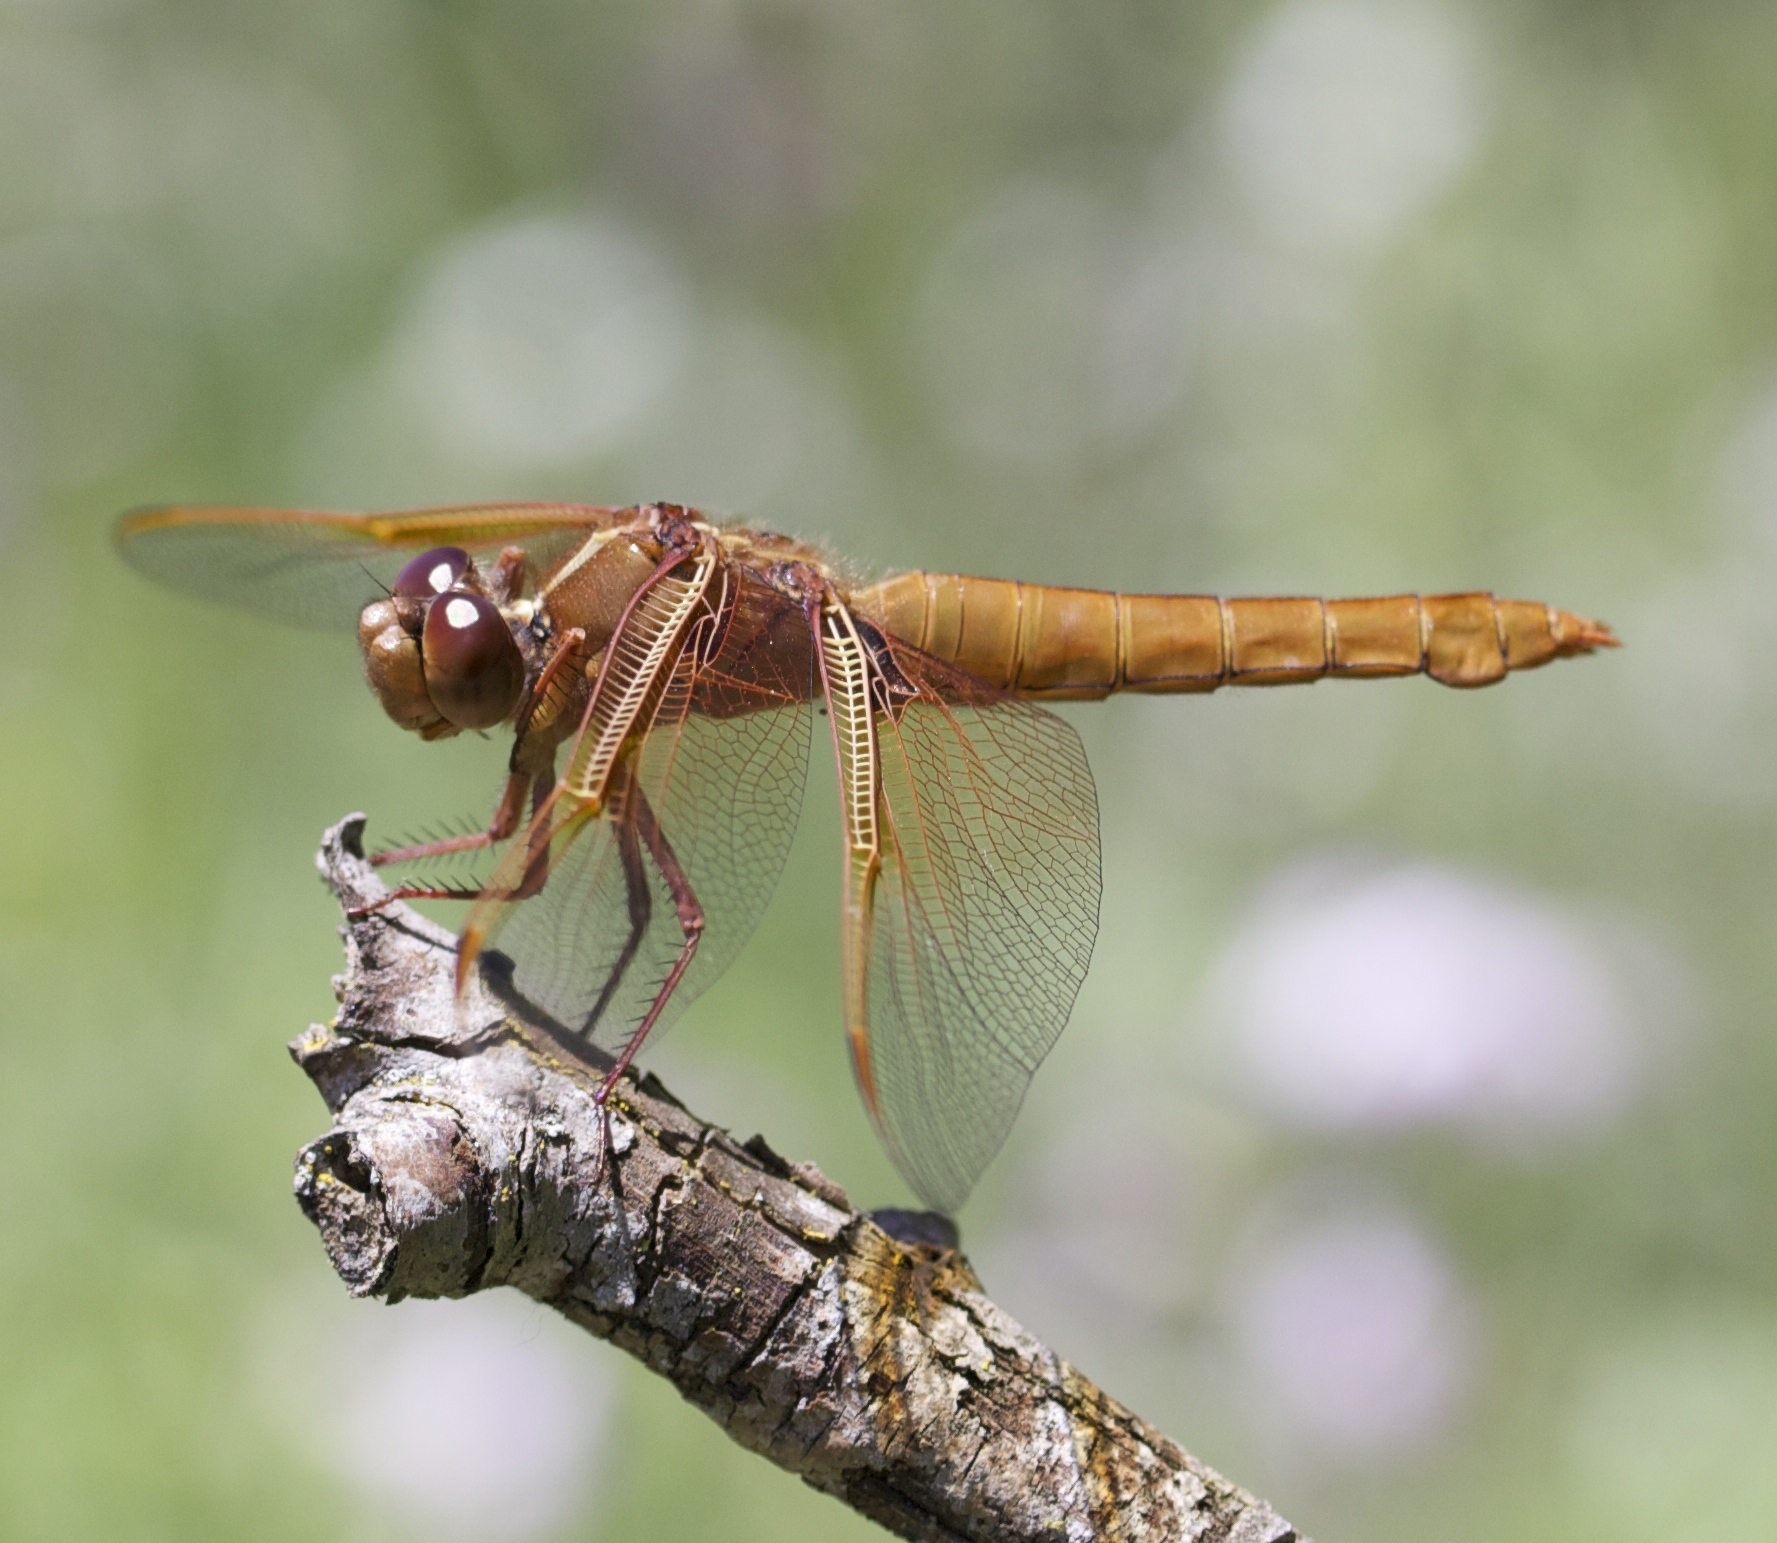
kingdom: Animalia
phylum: Arthropoda
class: Insecta
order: Odonata
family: Libellulidae
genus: Libellula
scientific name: Libellula saturata
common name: Flame skimmer
